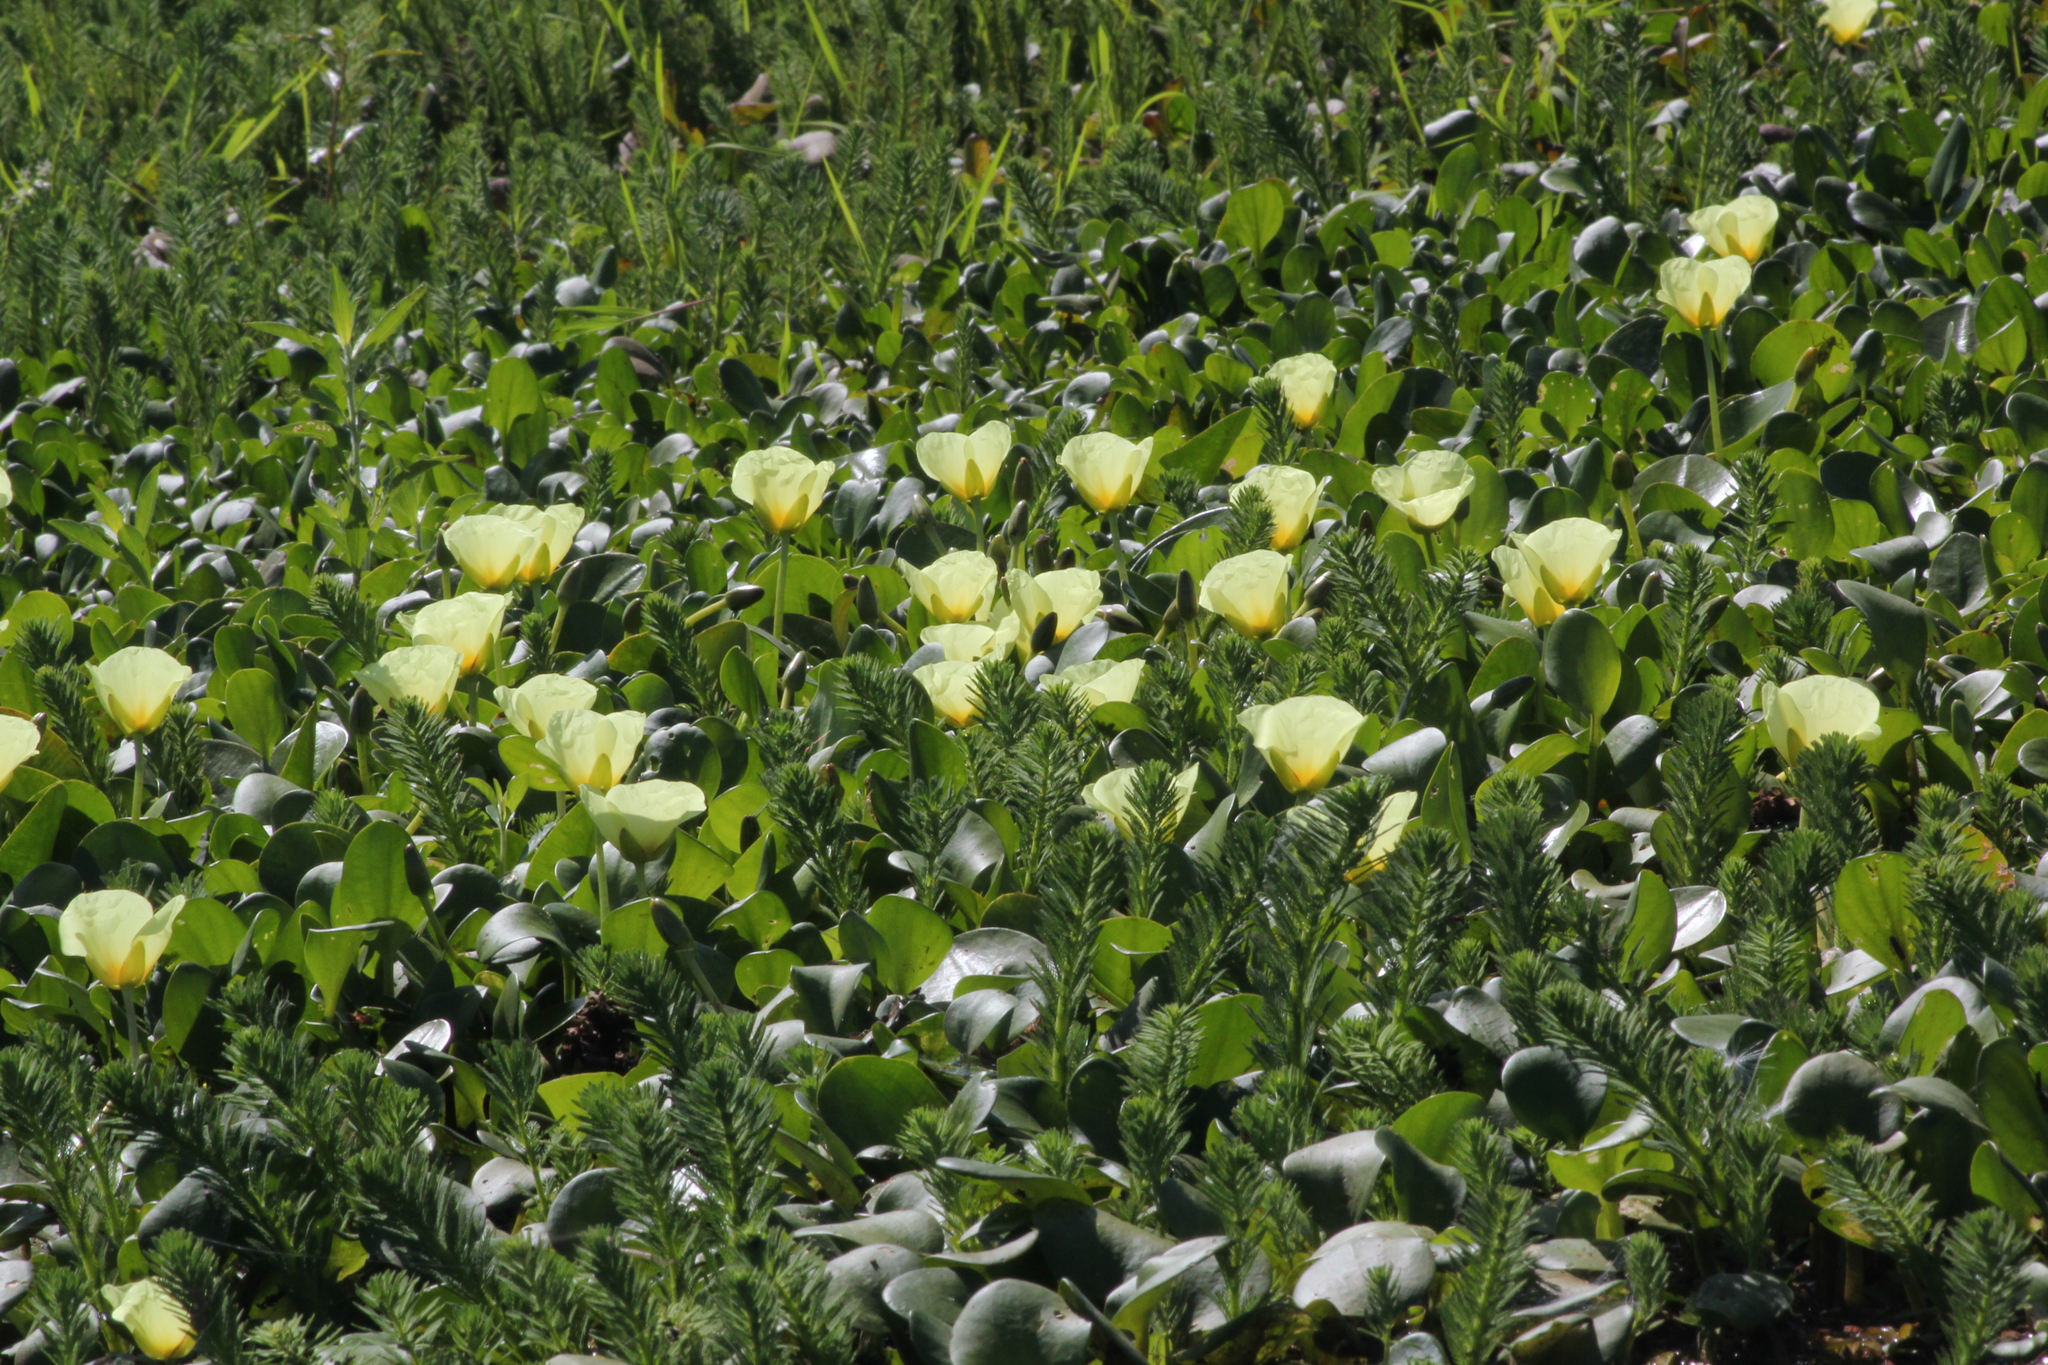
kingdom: Plantae
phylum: Tracheophyta
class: Liliopsida
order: Alismatales
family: Alismataceae
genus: Hydrocleys
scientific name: Hydrocleys nymphoides
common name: Water-poppy
